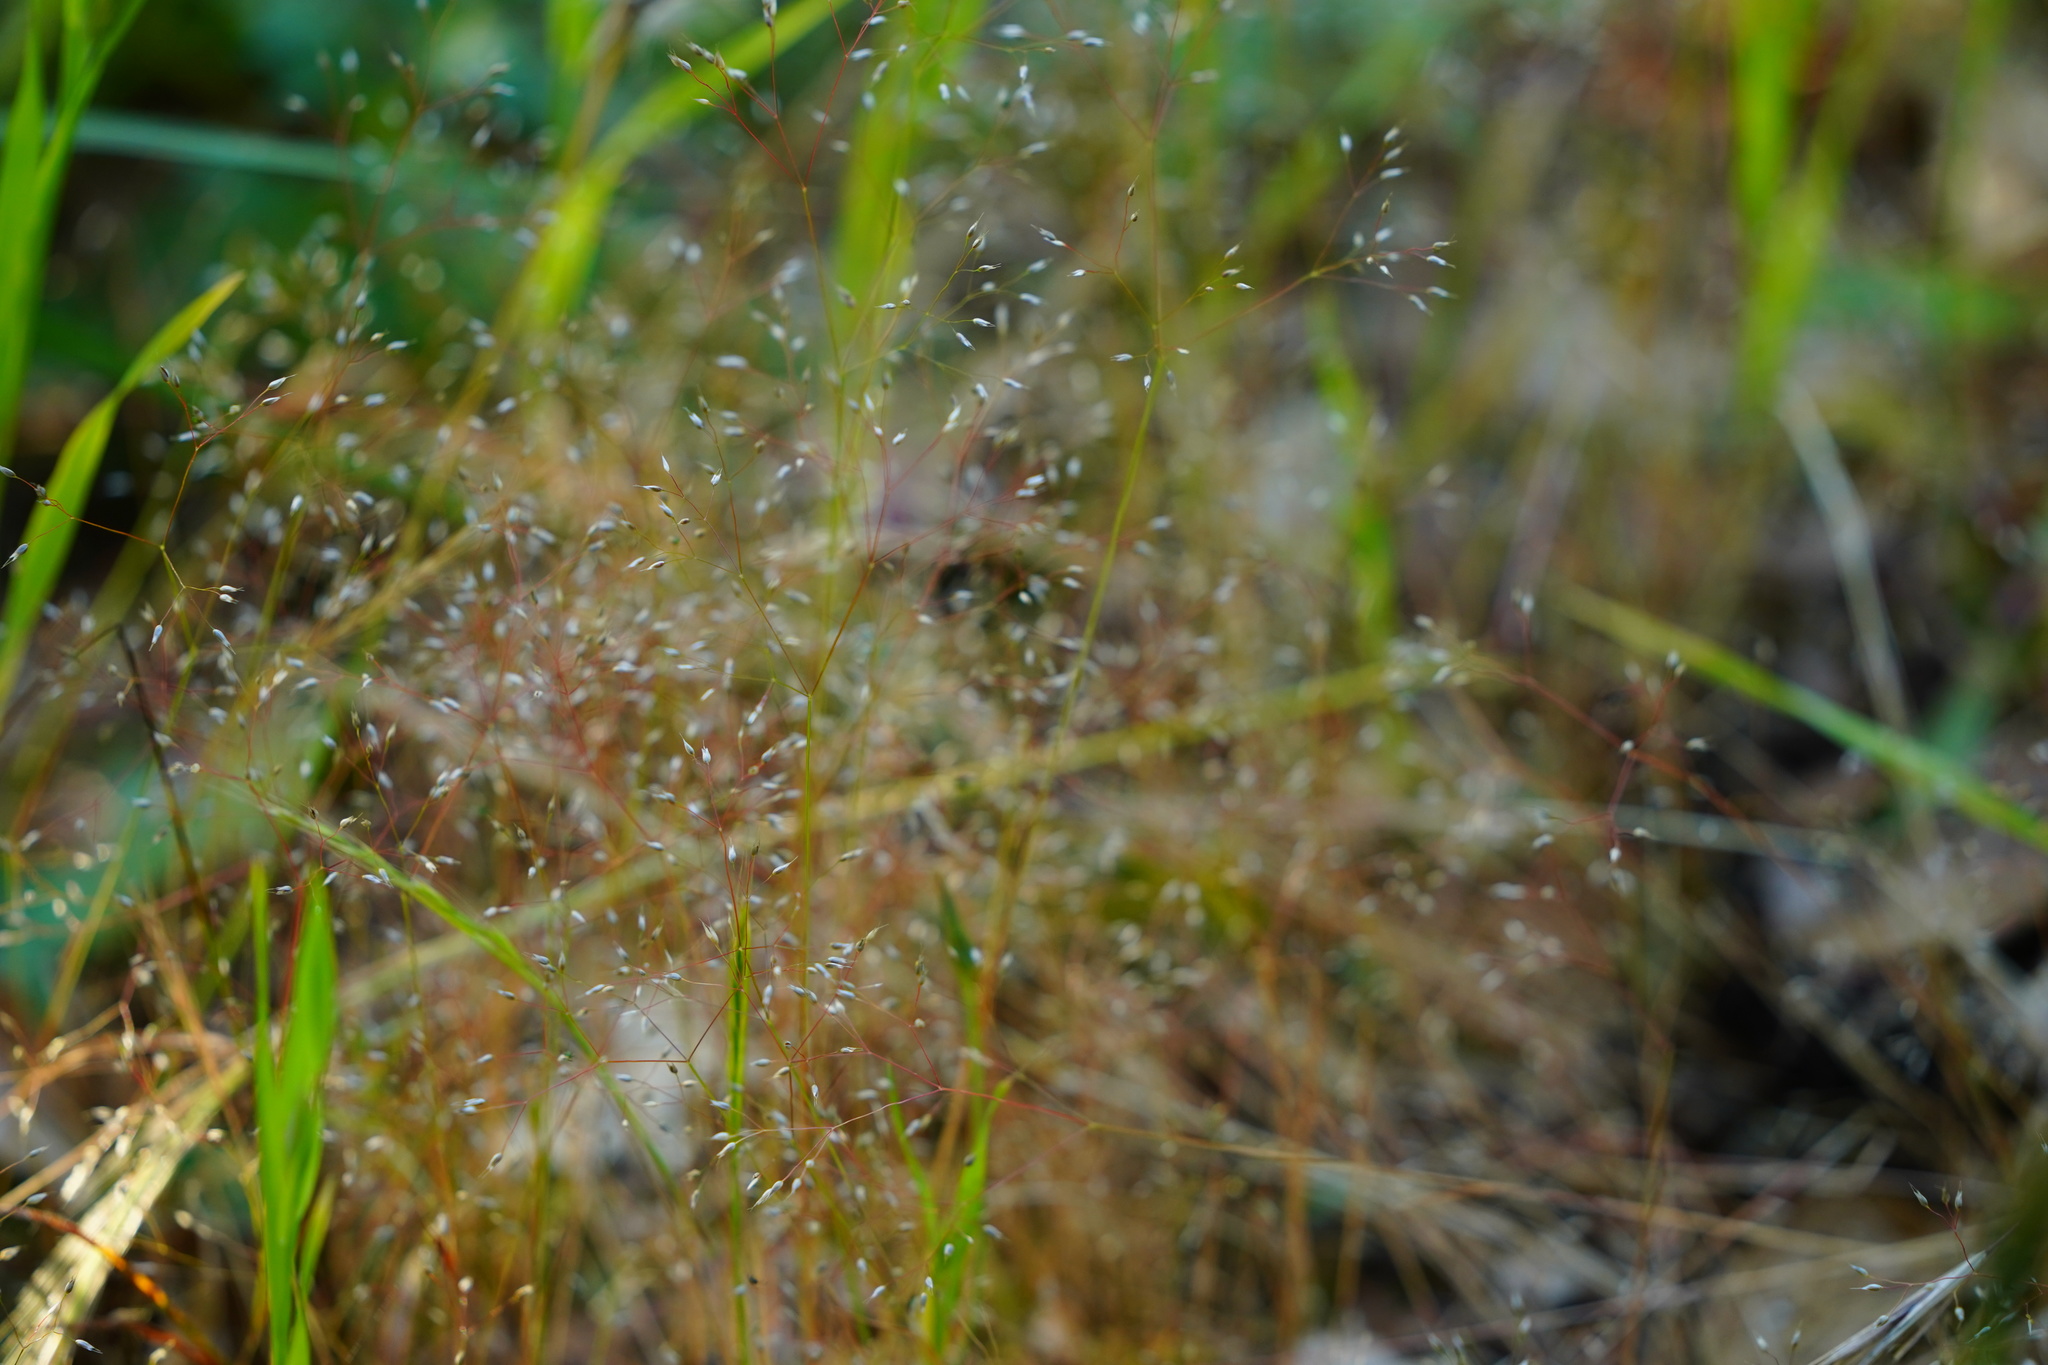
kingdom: Plantae
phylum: Tracheophyta
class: Liliopsida
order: Poales
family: Poaceae
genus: Aira
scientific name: Aira caryophyllea
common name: Silver hairgrass
